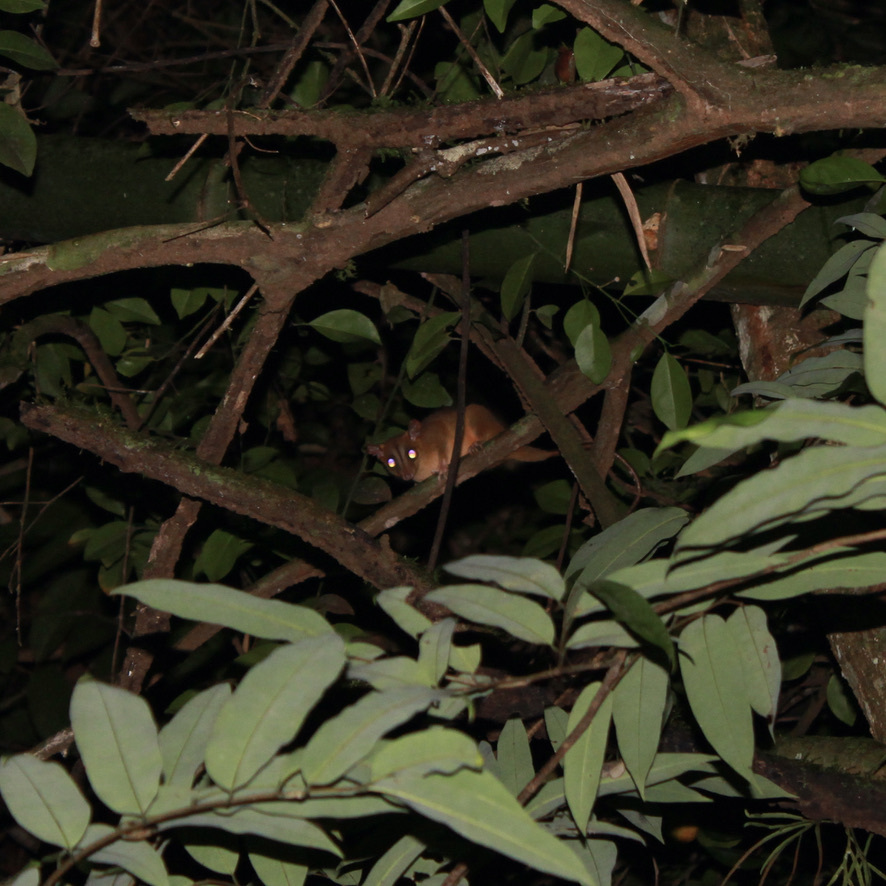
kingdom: Animalia
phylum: Chordata
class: Mammalia
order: Didelphimorphia
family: Didelphidae
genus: Caluromys
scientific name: Caluromys philander
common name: Bare-tailed woolly opossum
